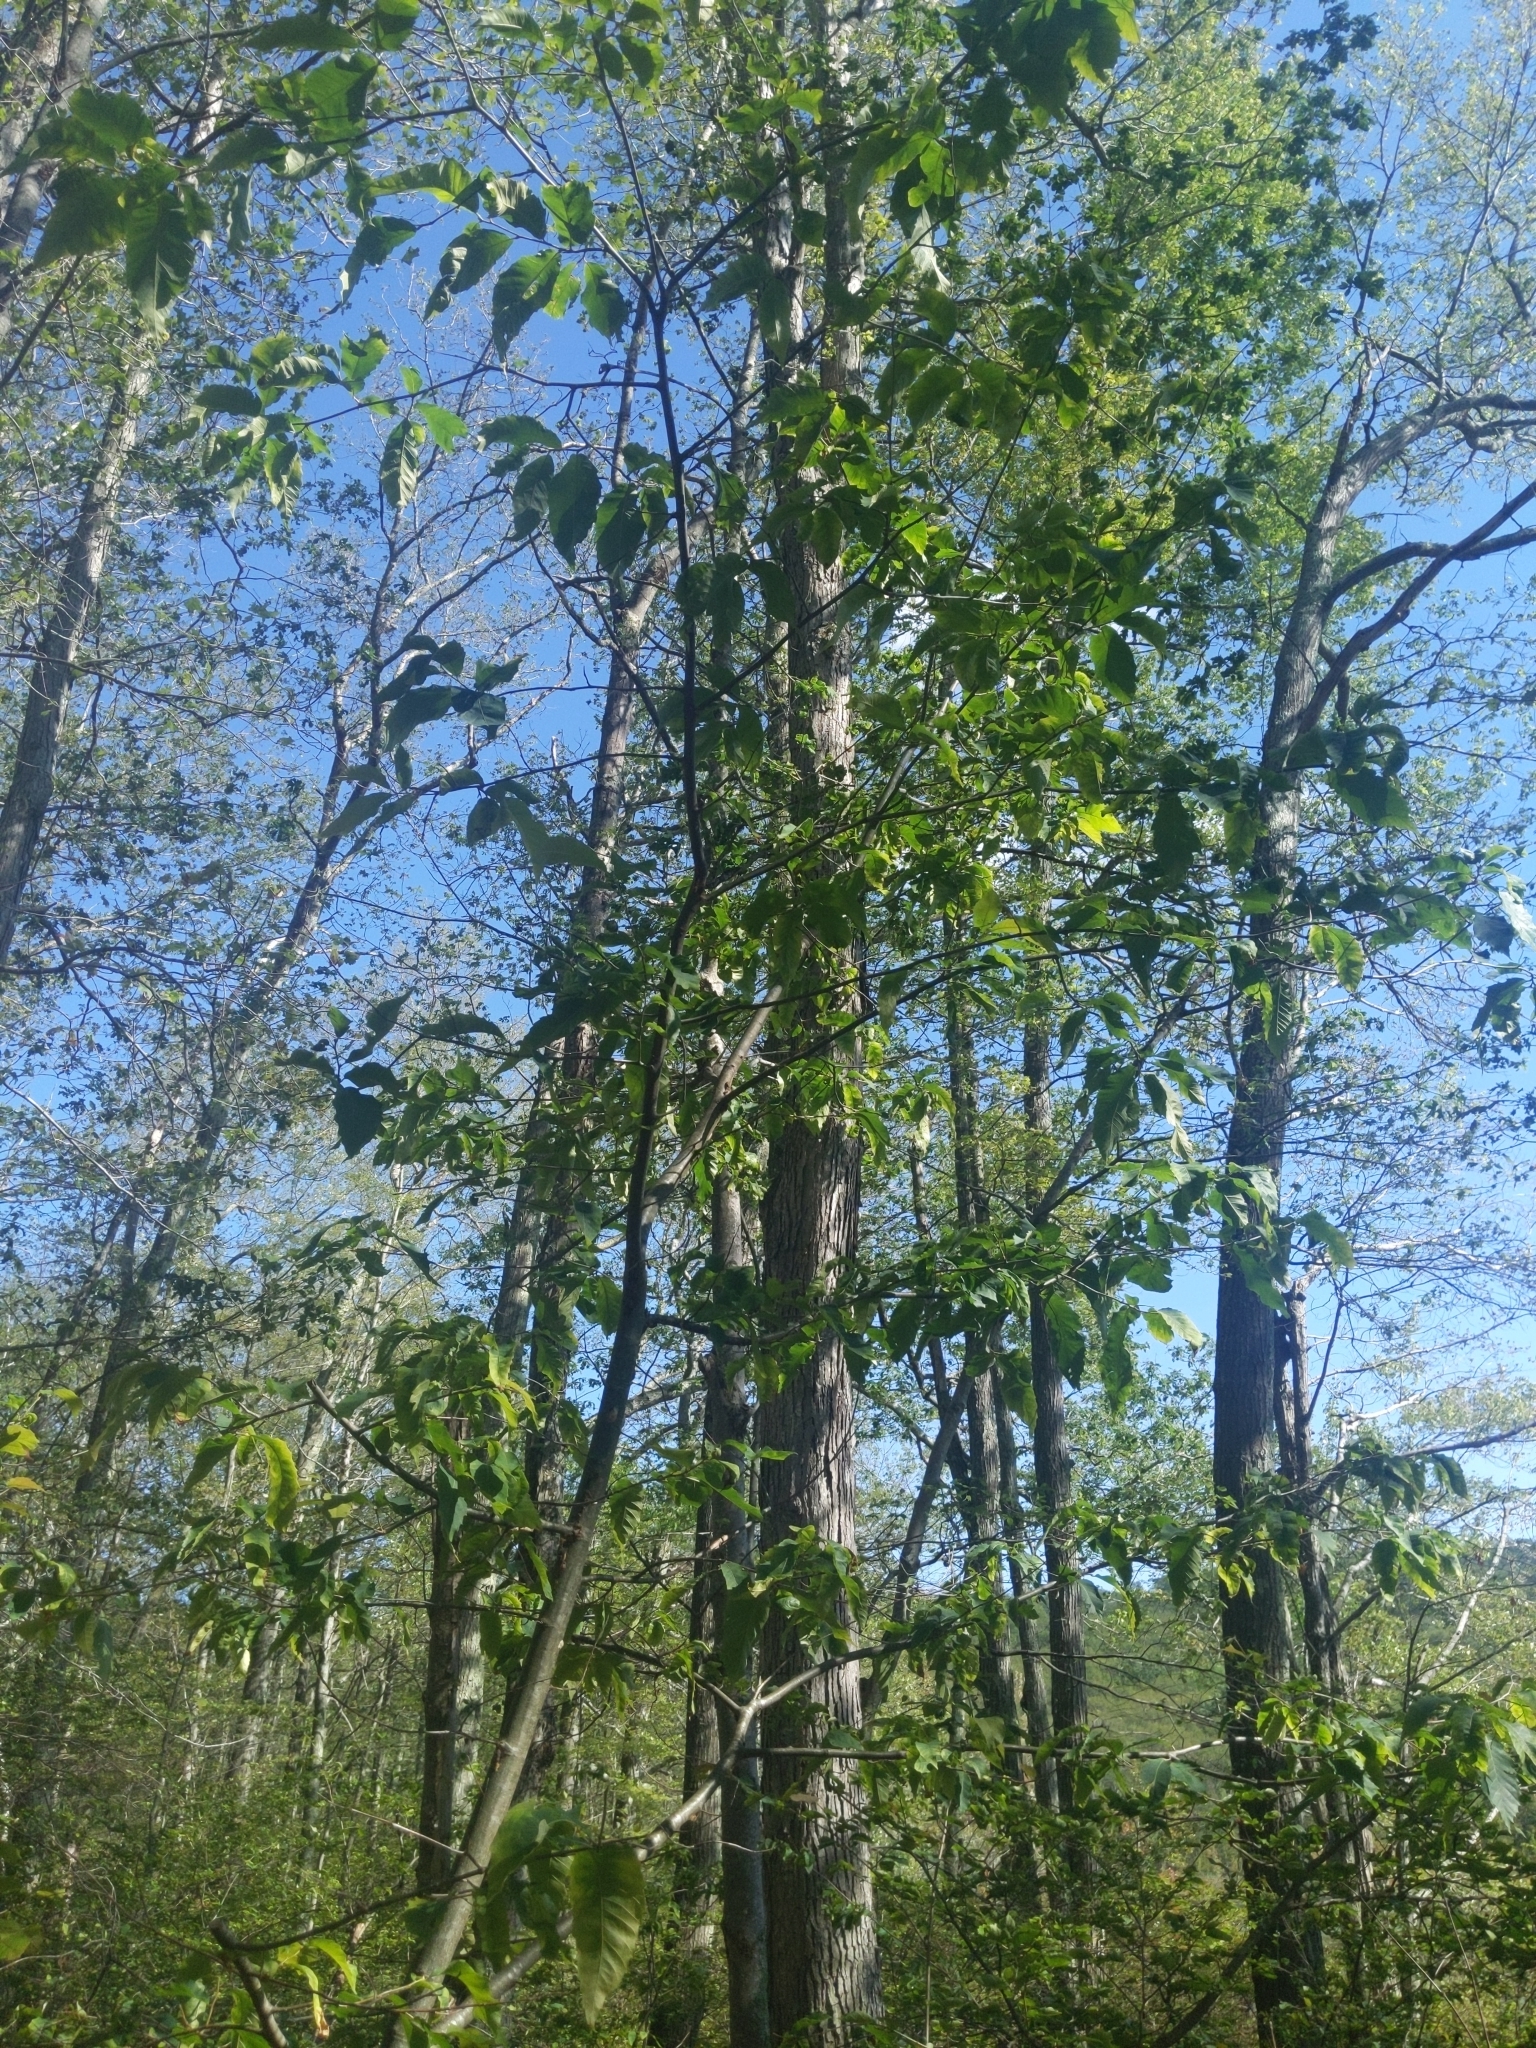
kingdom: Plantae
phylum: Tracheophyta
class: Magnoliopsida
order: Fagales
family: Fagaceae
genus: Castanea
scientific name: Castanea dentata
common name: American chestnut
